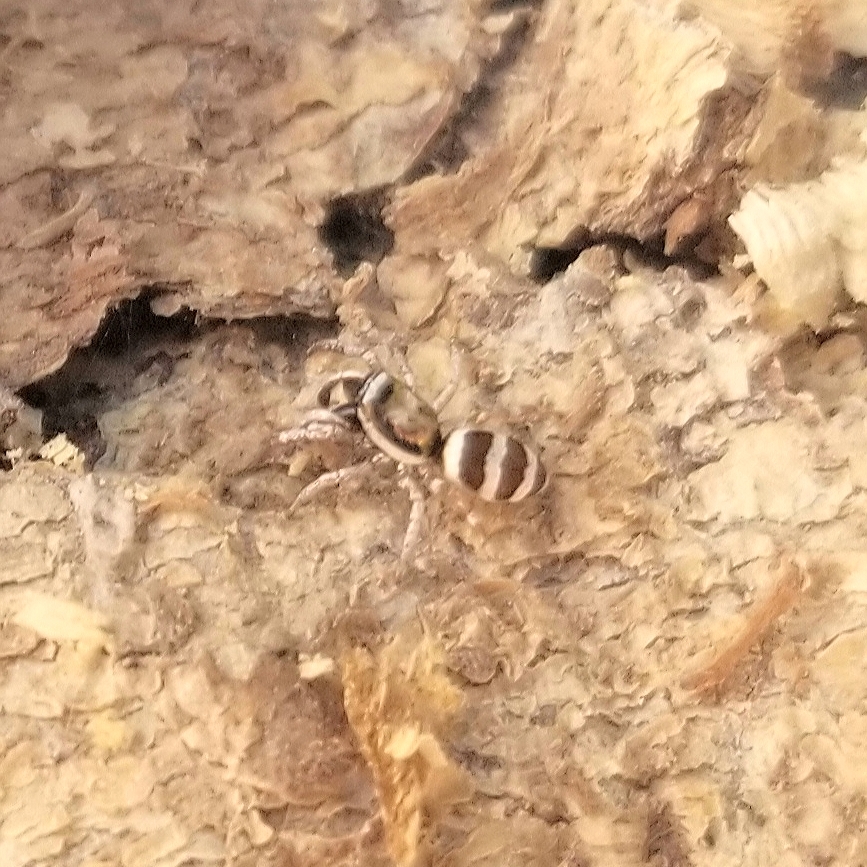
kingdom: Animalia
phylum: Arthropoda
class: Arachnida
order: Araneae
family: Salticidae
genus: Salticus
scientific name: Salticus palpalis
